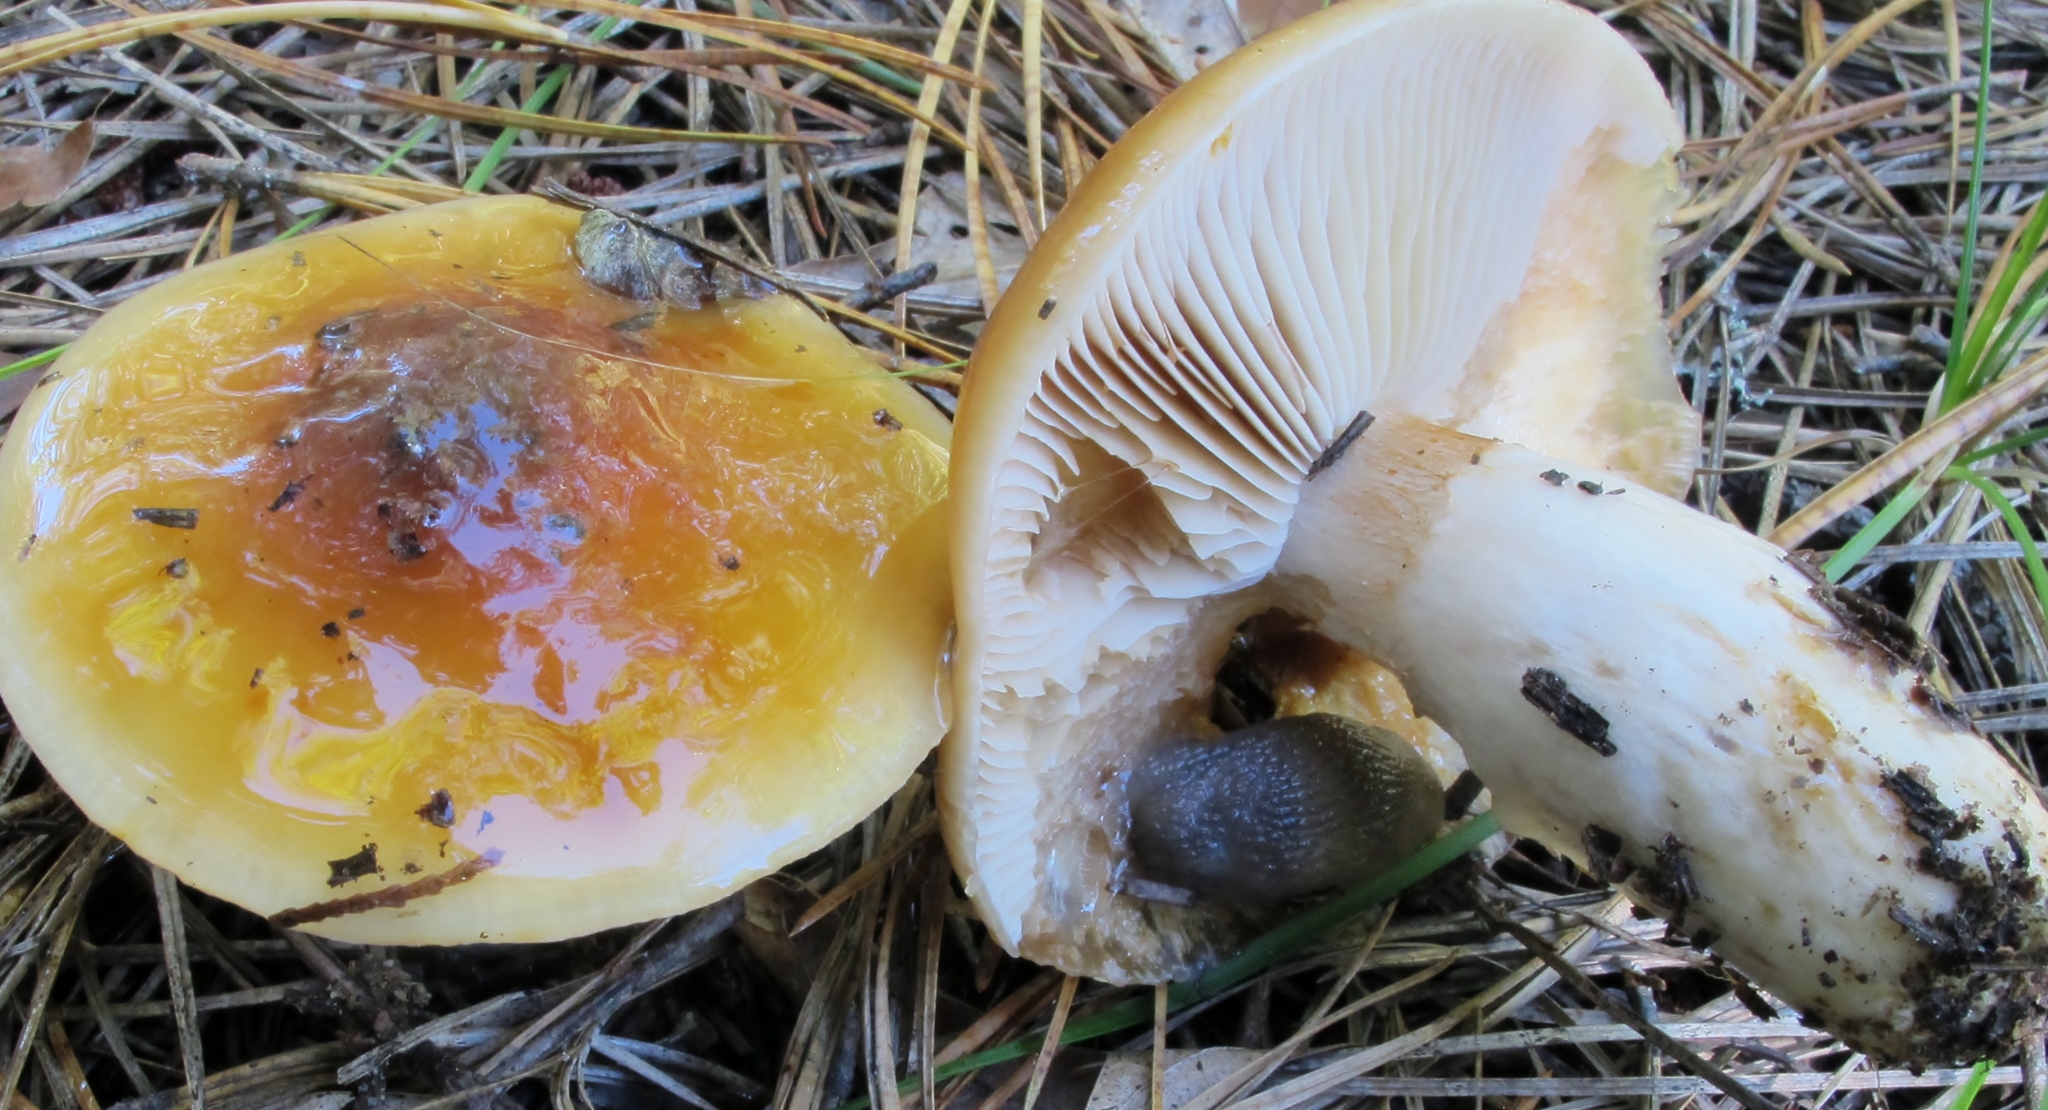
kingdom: Fungi
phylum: Basidiomycota
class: Agaricomycetes
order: Agaricales
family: Cortinariaceae
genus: Cortinarius
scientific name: Cortinarius mucosus
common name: Orange webcap
